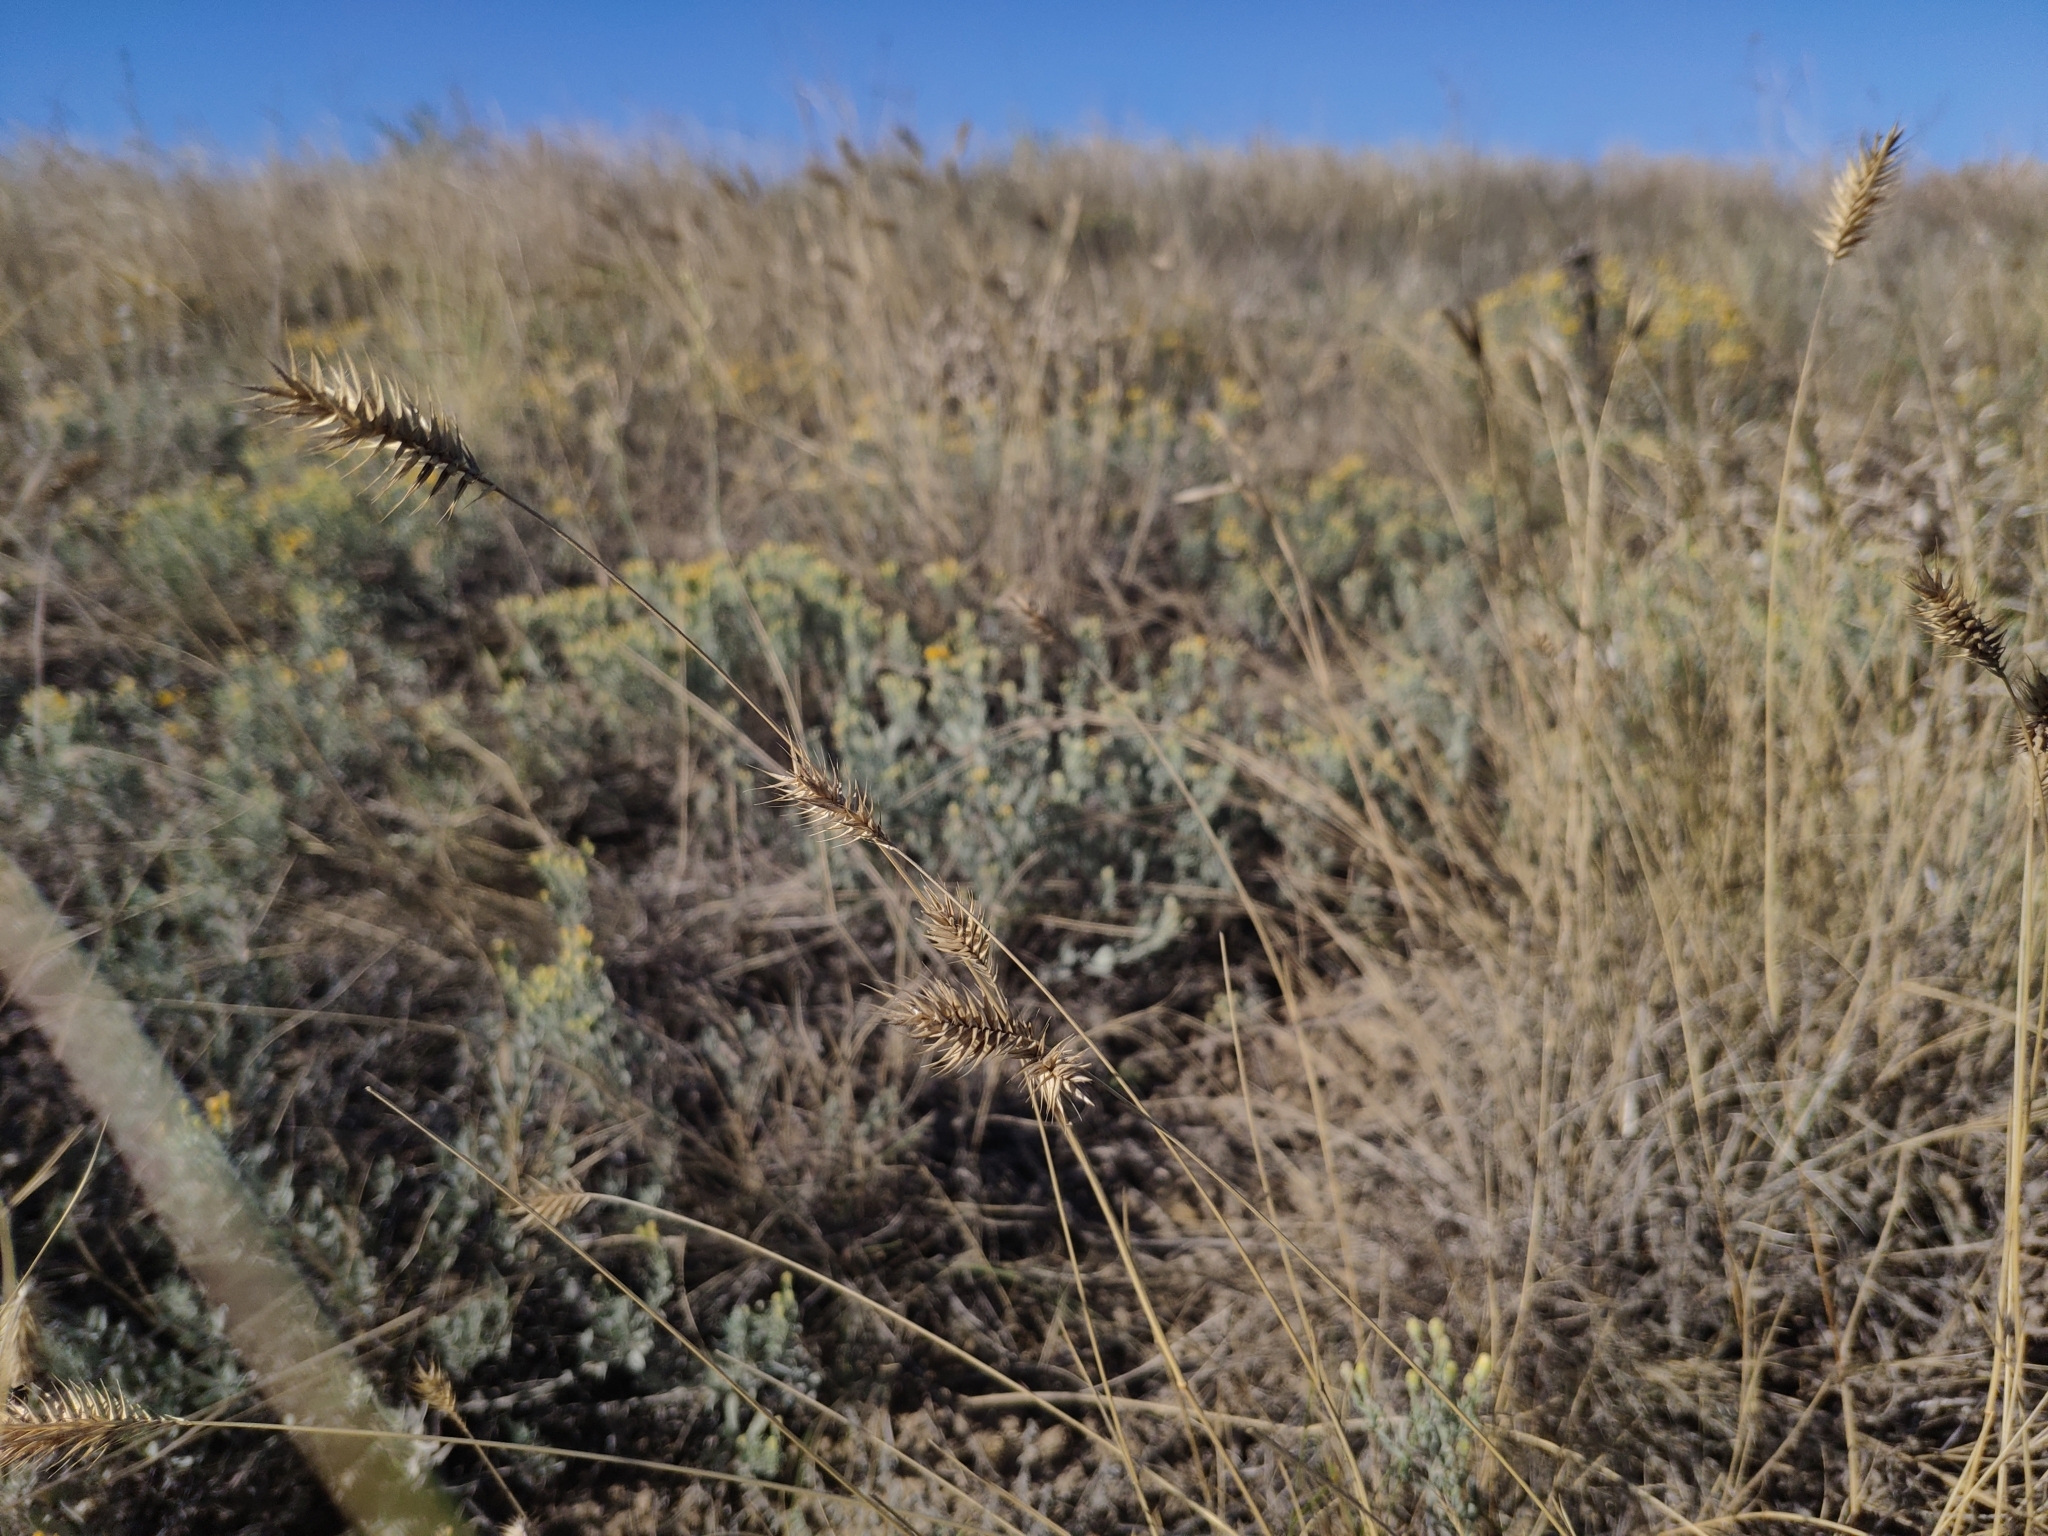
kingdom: Plantae
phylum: Tracheophyta
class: Liliopsida
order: Poales
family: Poaceae
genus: Agropyron
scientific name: Agropyron cristatum
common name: Crested wheatgrass
